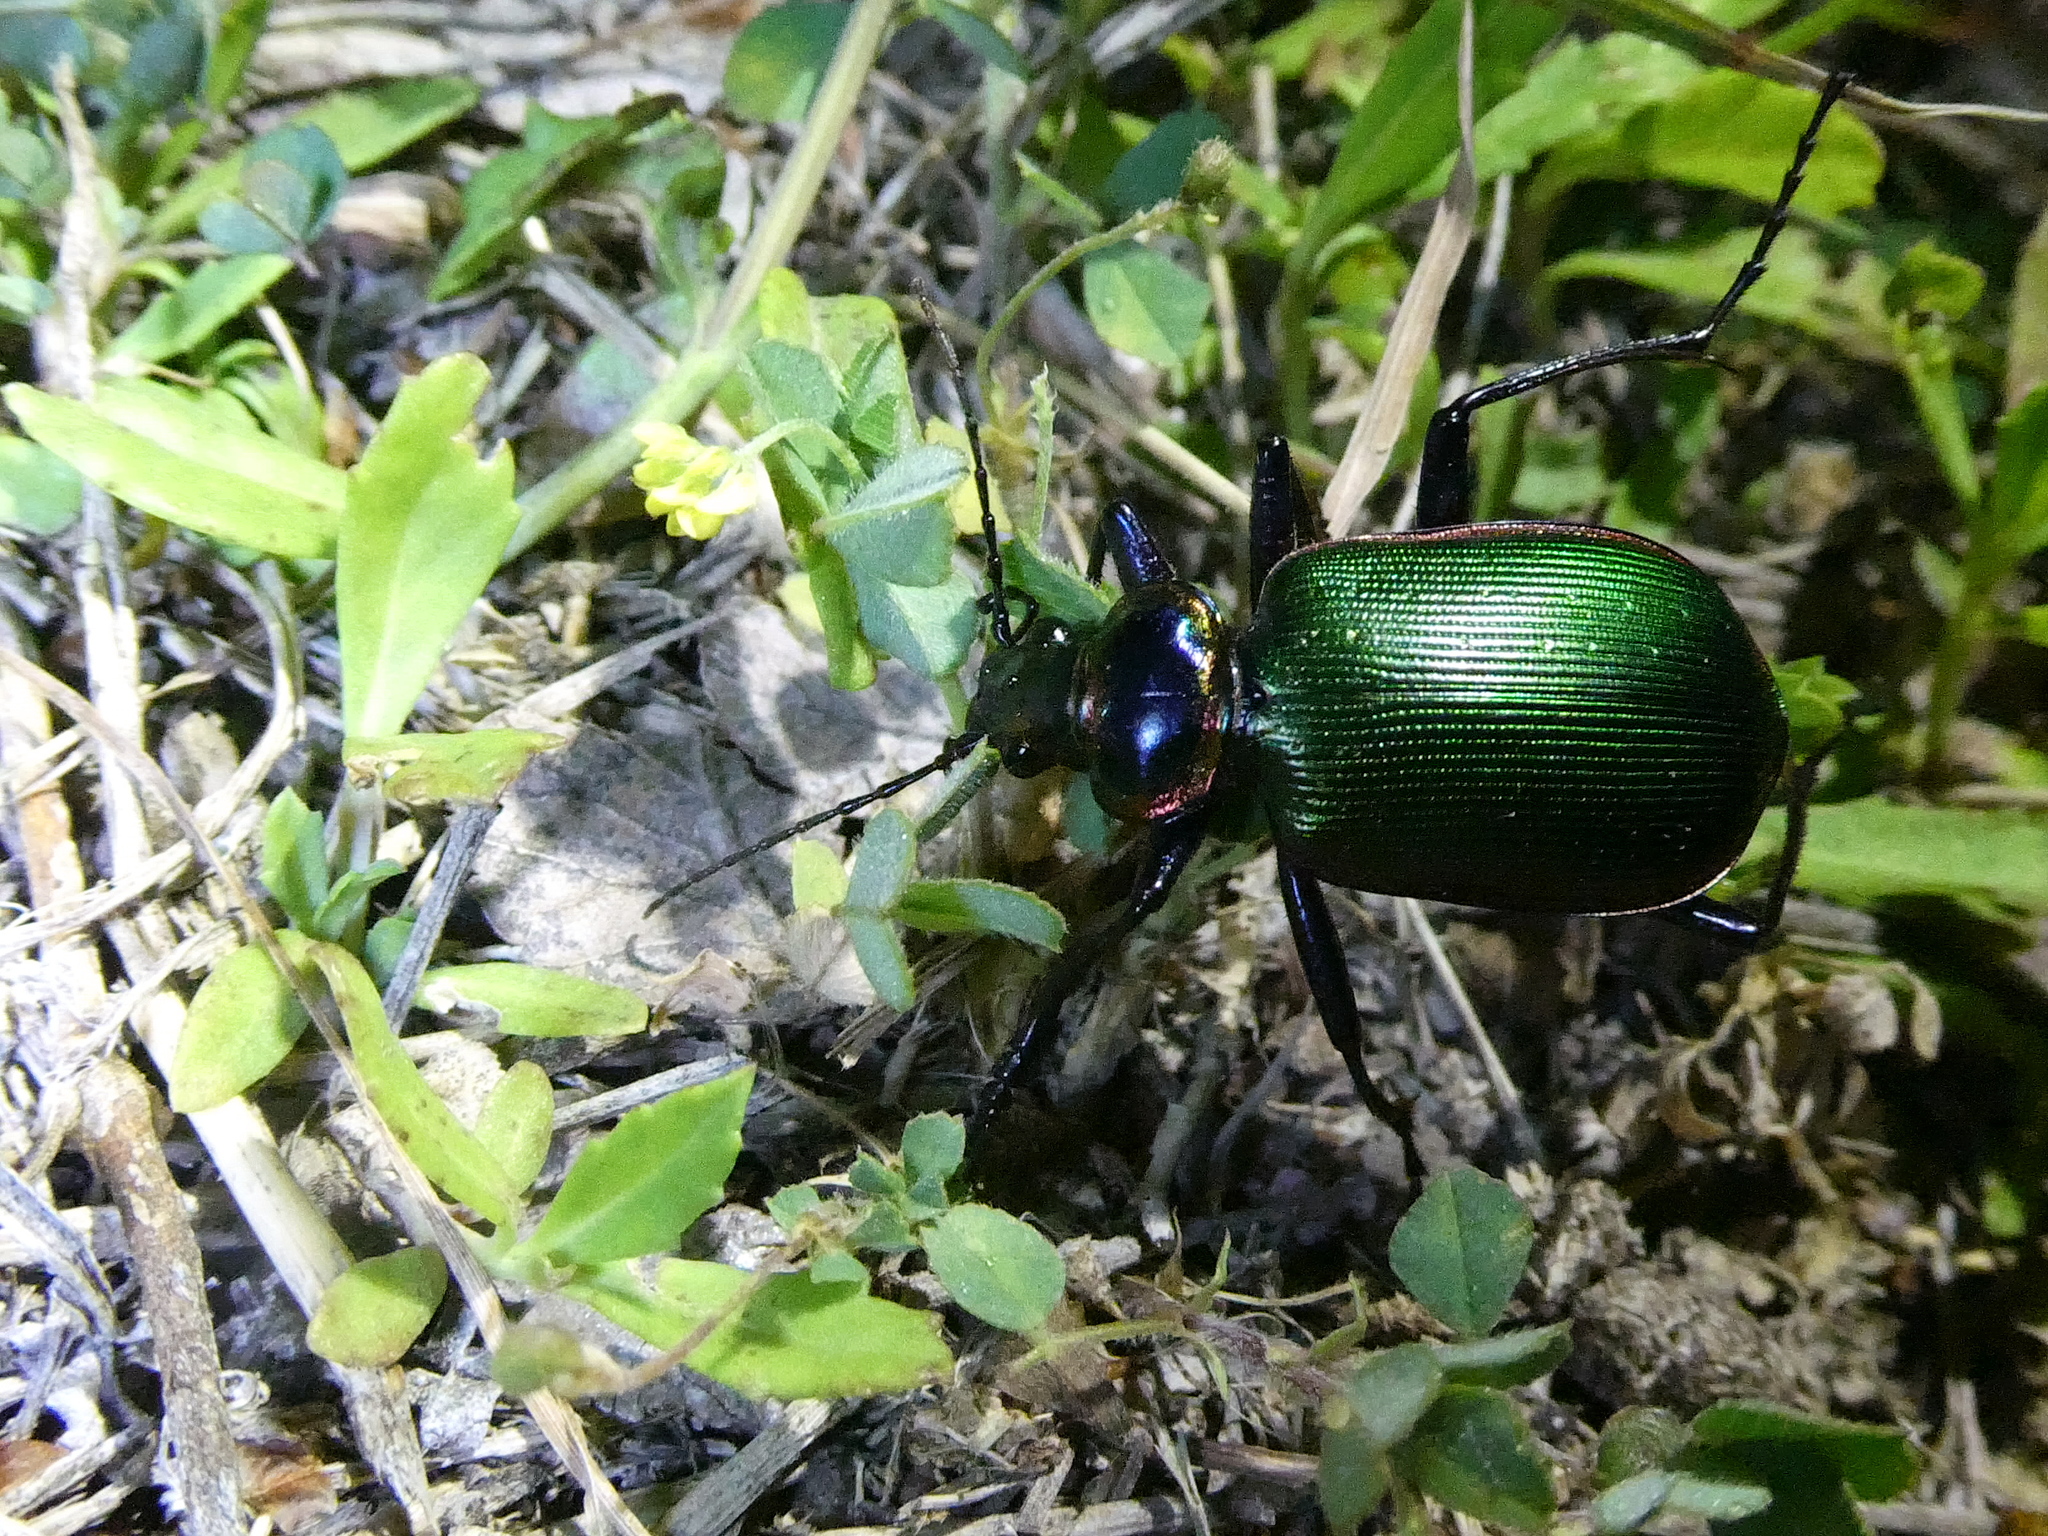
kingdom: Animalia
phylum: Arthropoda
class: Insecta
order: Coleoptera
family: Carabidae
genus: Calosoma
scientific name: Calosoma scrutator
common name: Fiery searcher beetle
